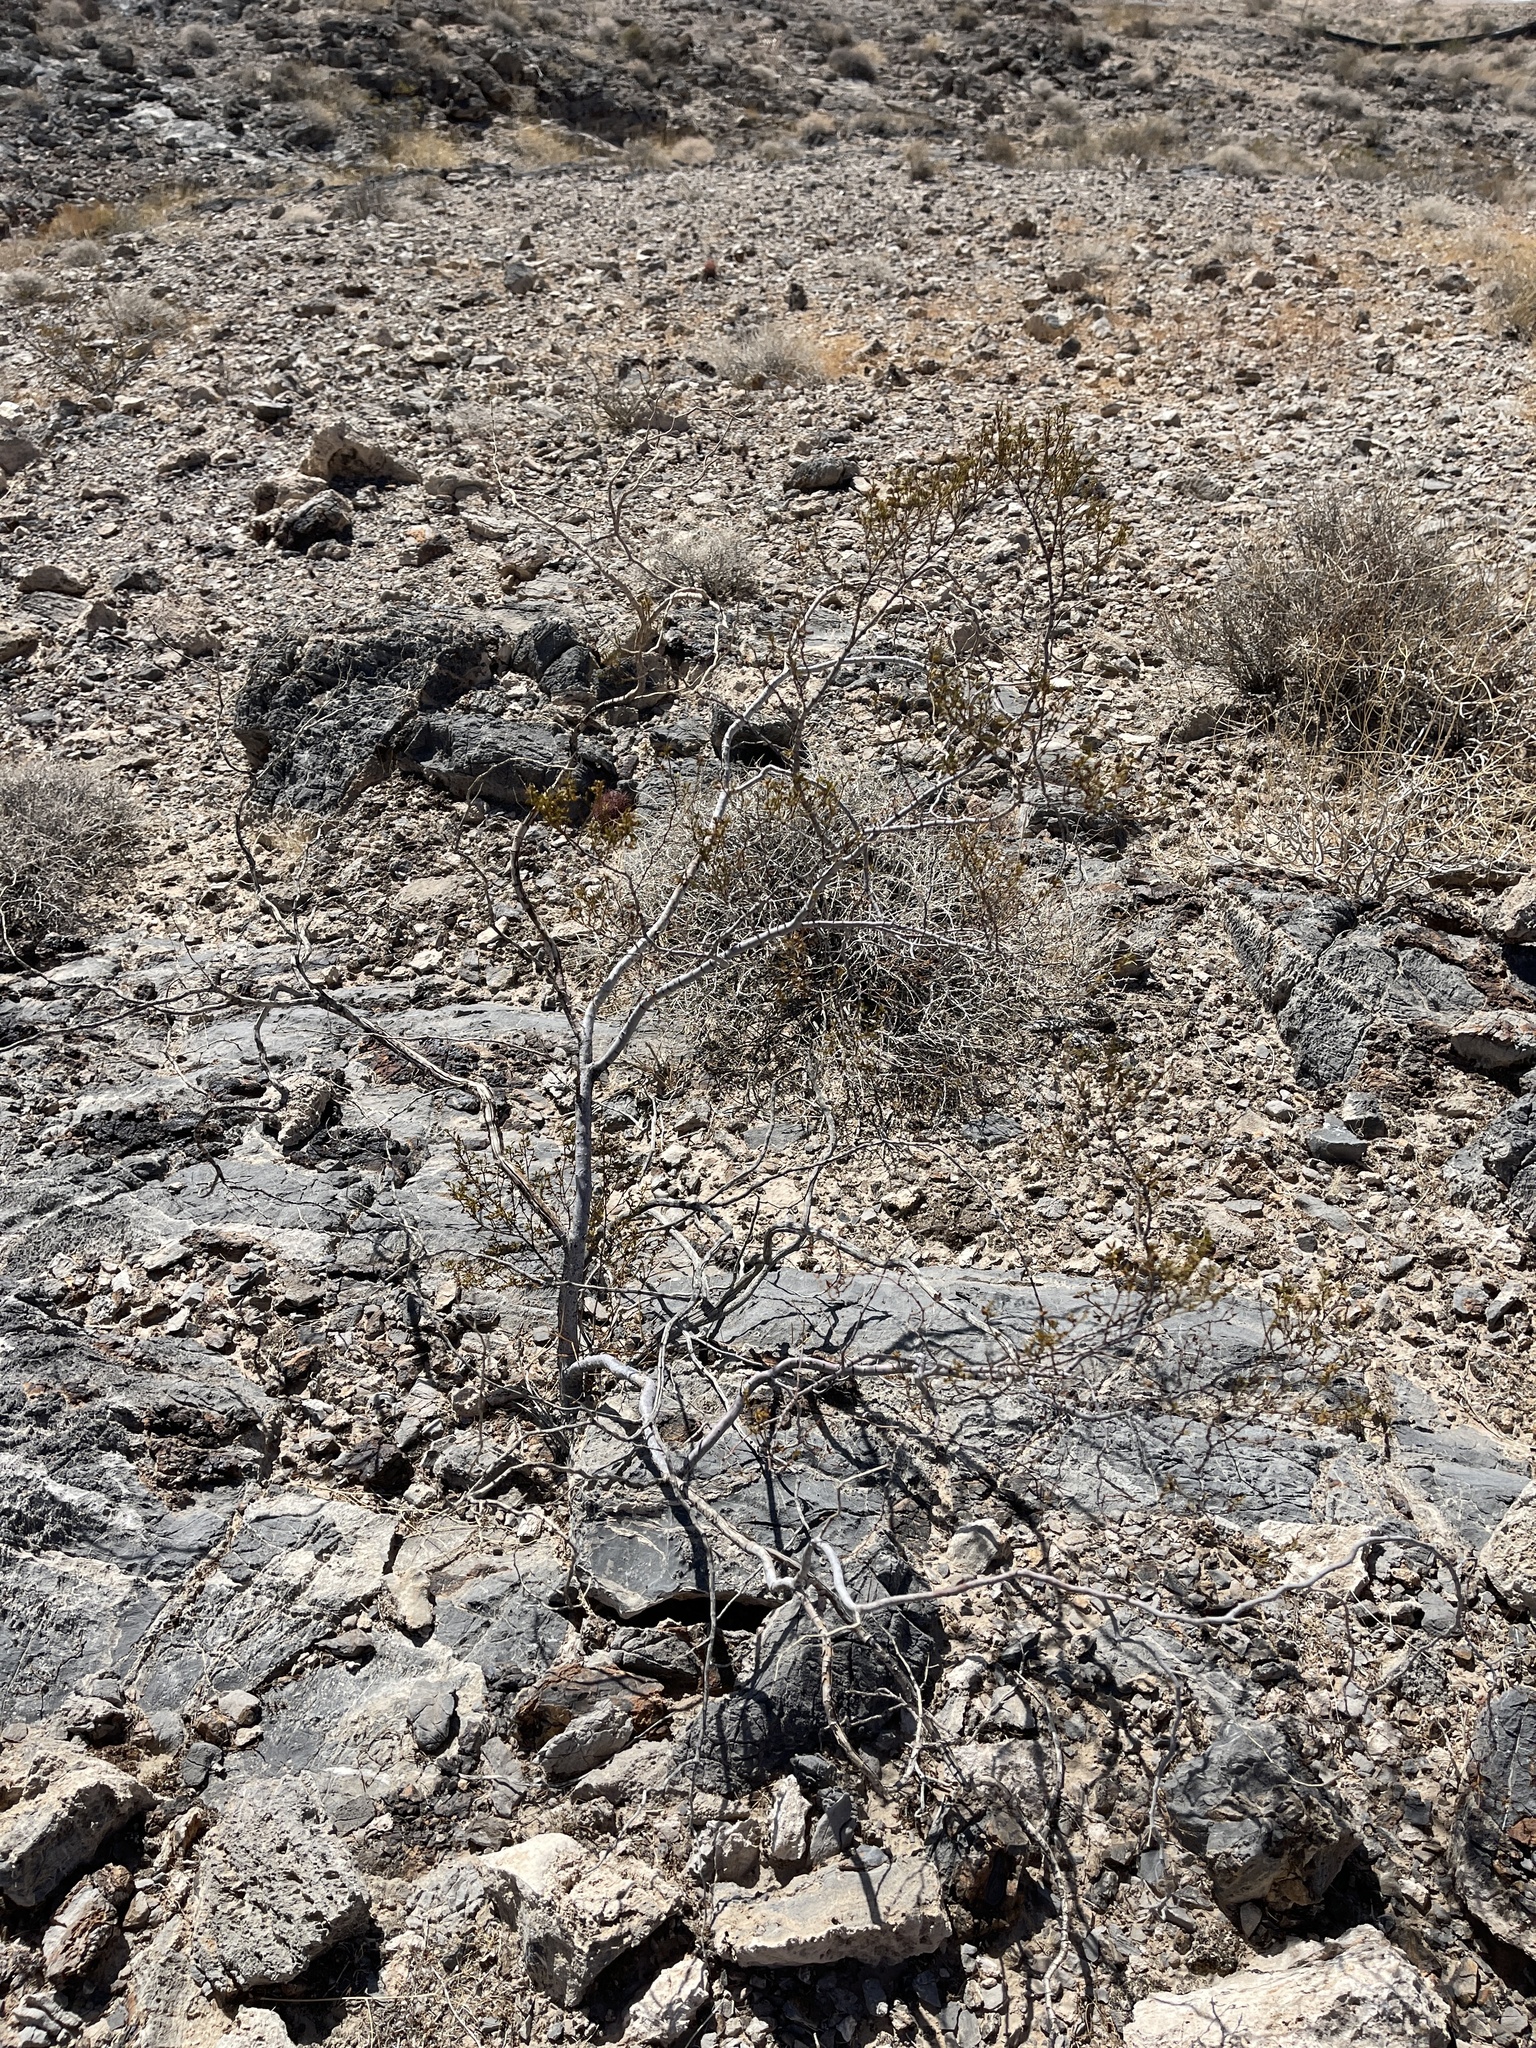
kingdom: Plantae
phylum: Tracheophyta
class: Magnoliopsida
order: Zygophyllales
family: Zygophyllaceae
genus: Larrea
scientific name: Larrea tridentata
